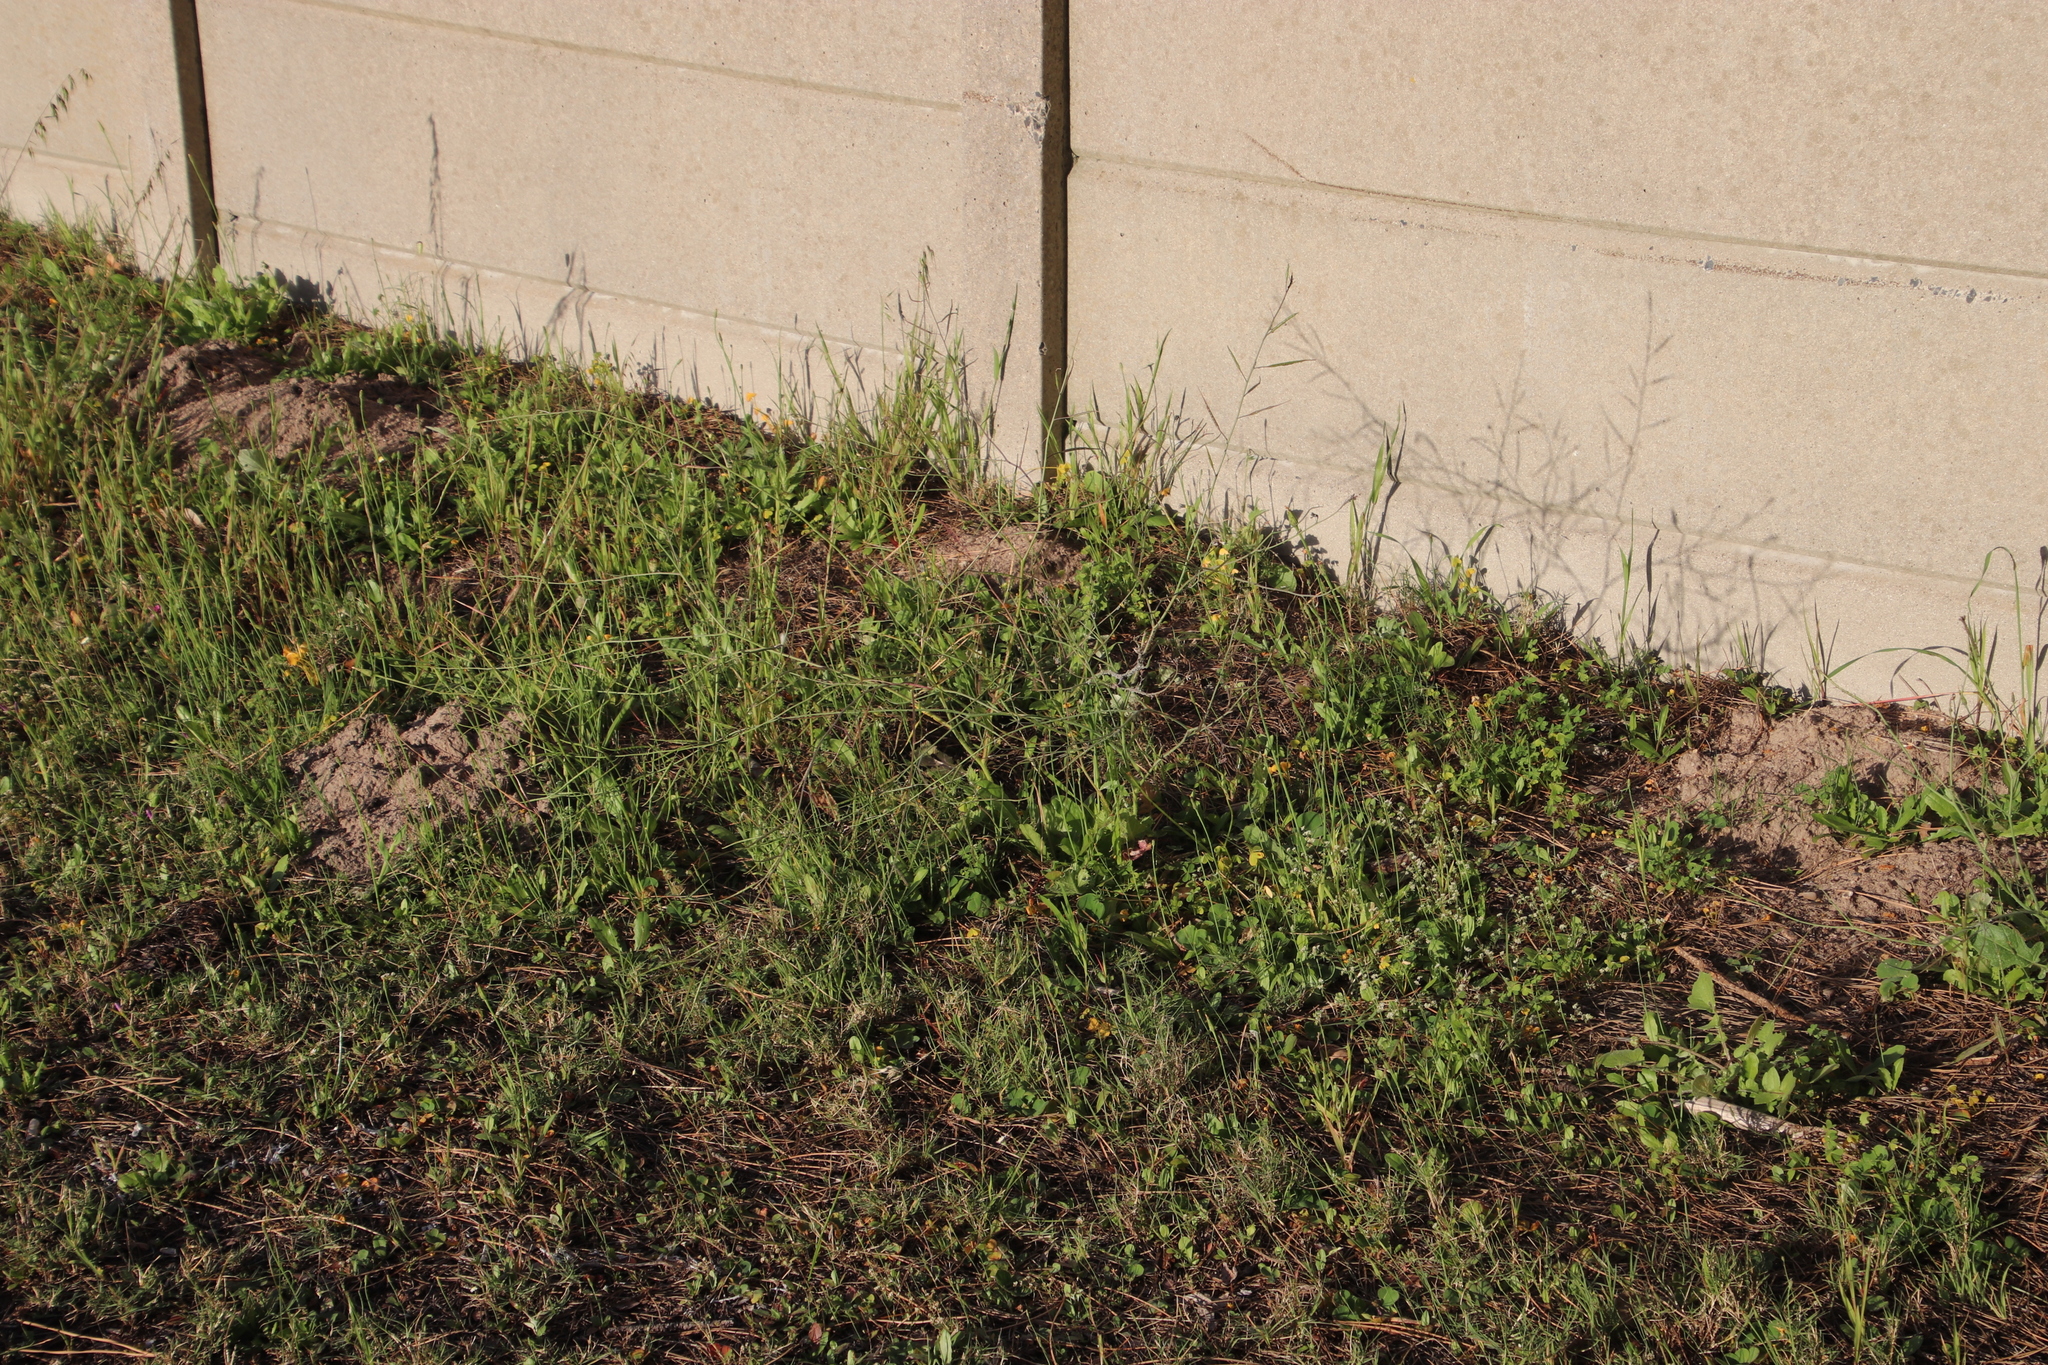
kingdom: Plantae
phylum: Tracheophyta
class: Magnoliopsida
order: Brassicales
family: Brassicaceae
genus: Brassica
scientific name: Brassica tournefortii
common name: Pale cabbage
